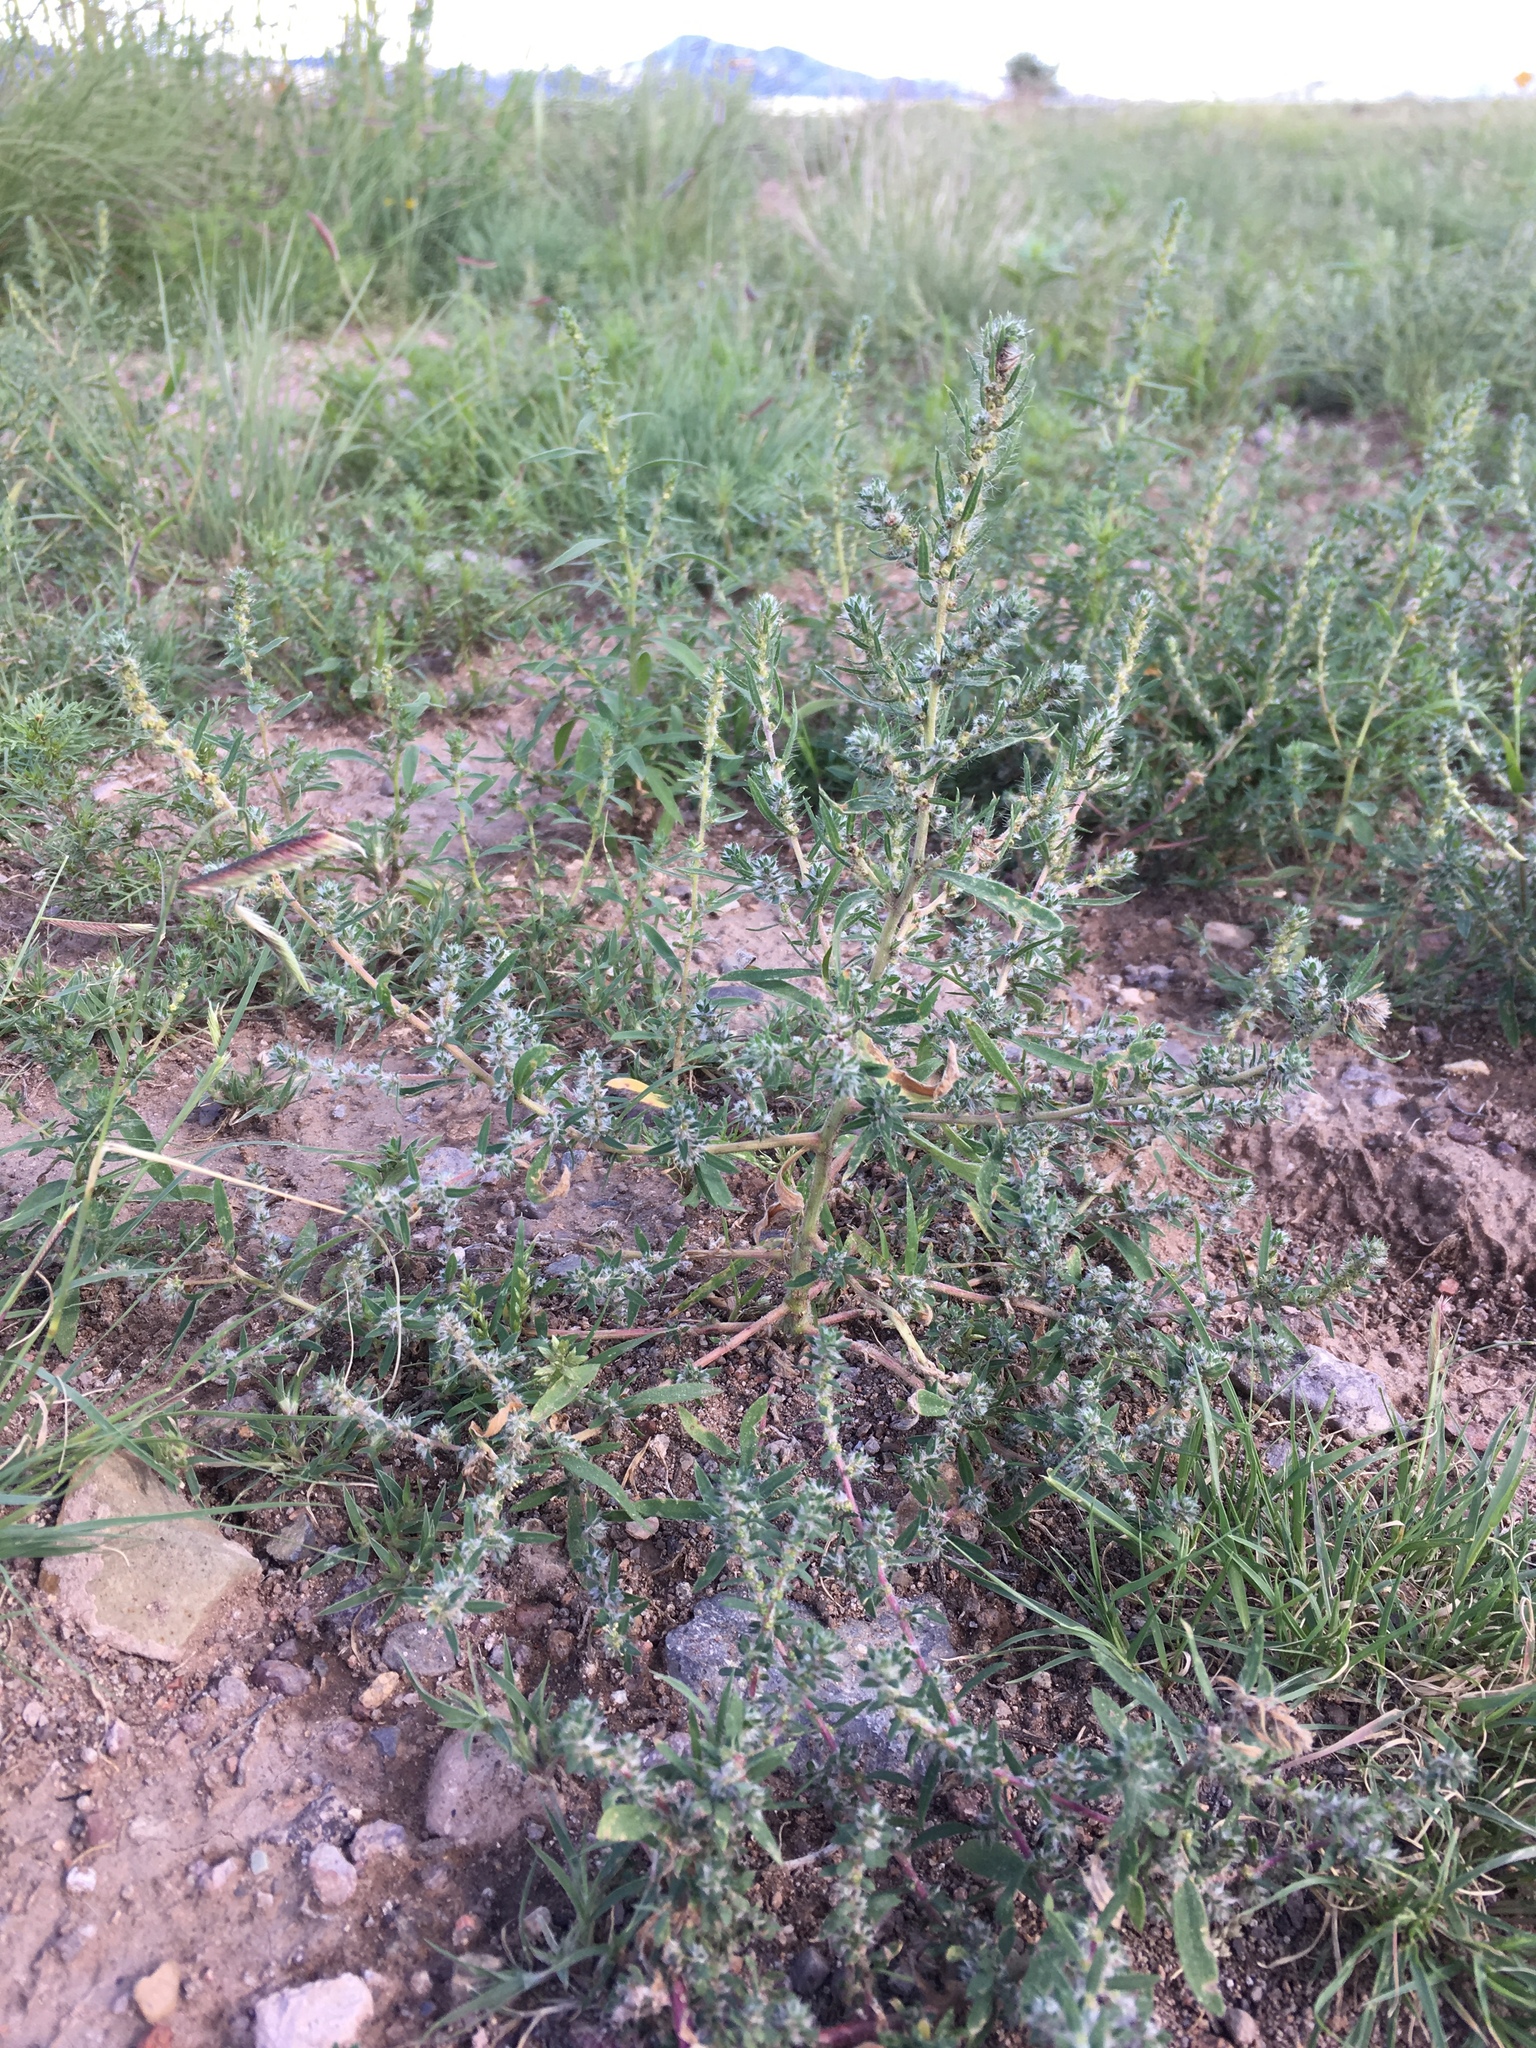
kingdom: Plantae
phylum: Tracheophyta
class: Magnoliopsida
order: Caryophyllales
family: Amaranthaceae
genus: Bassia
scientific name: Bassia scoparia
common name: Belvedere
